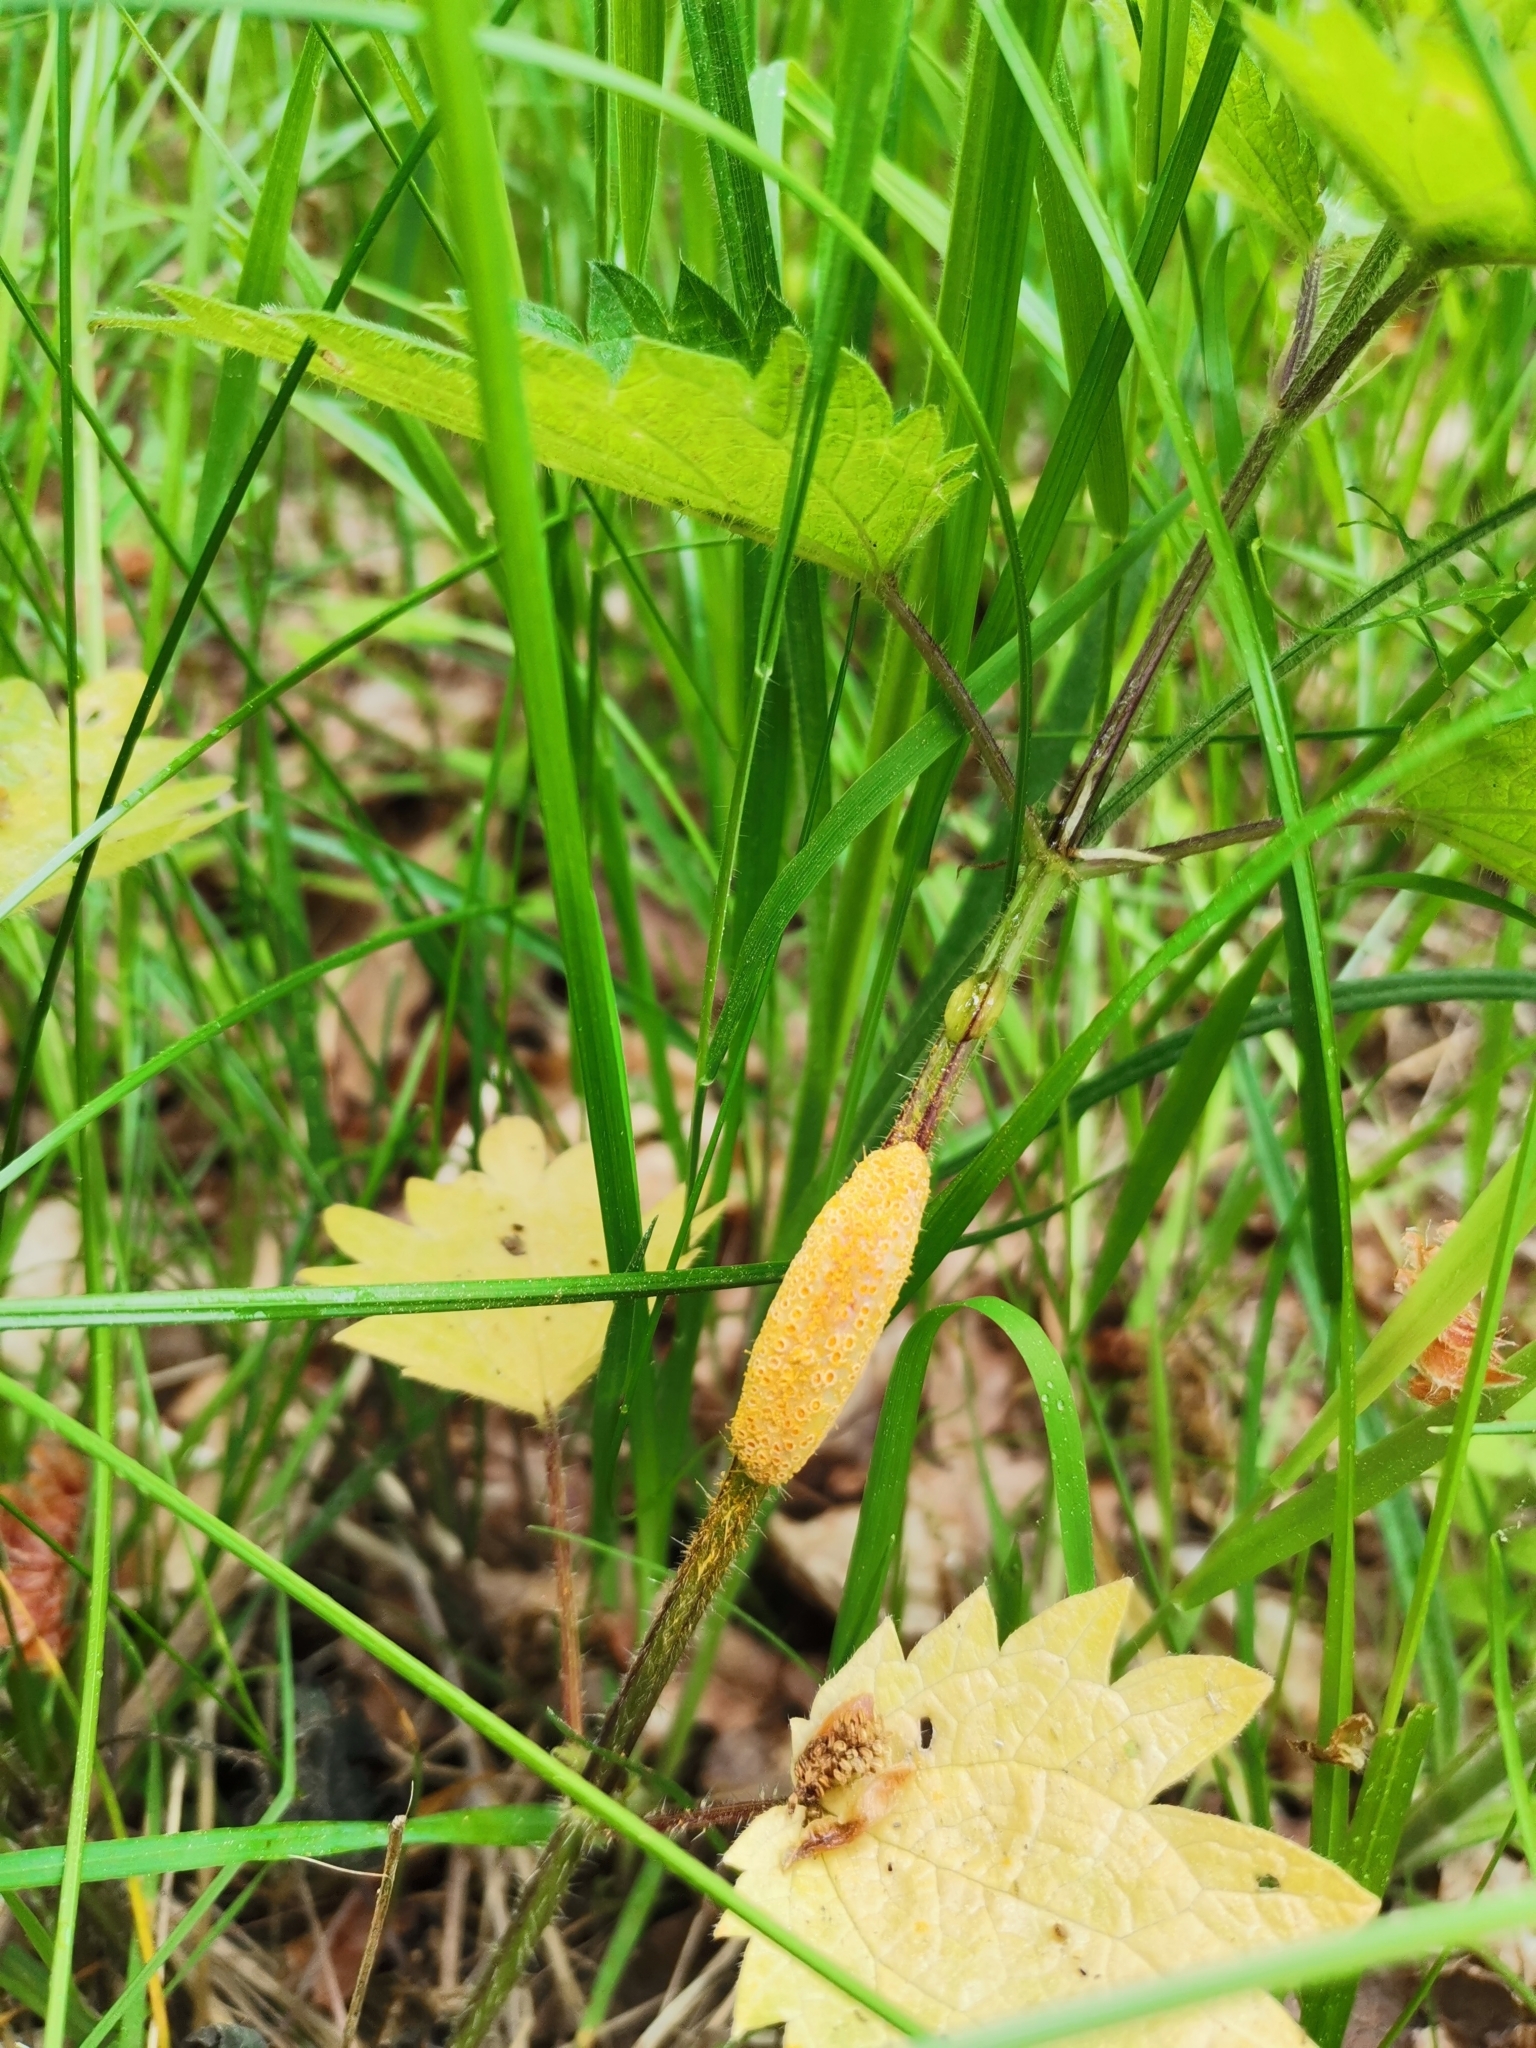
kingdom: Fungi
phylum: Basidiomycota
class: Pucciniomycetes
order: Pucciniales
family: Pucciniaceae
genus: Puccinia
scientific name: Puccinia urticata
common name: Nettle clustercup rust fungus
